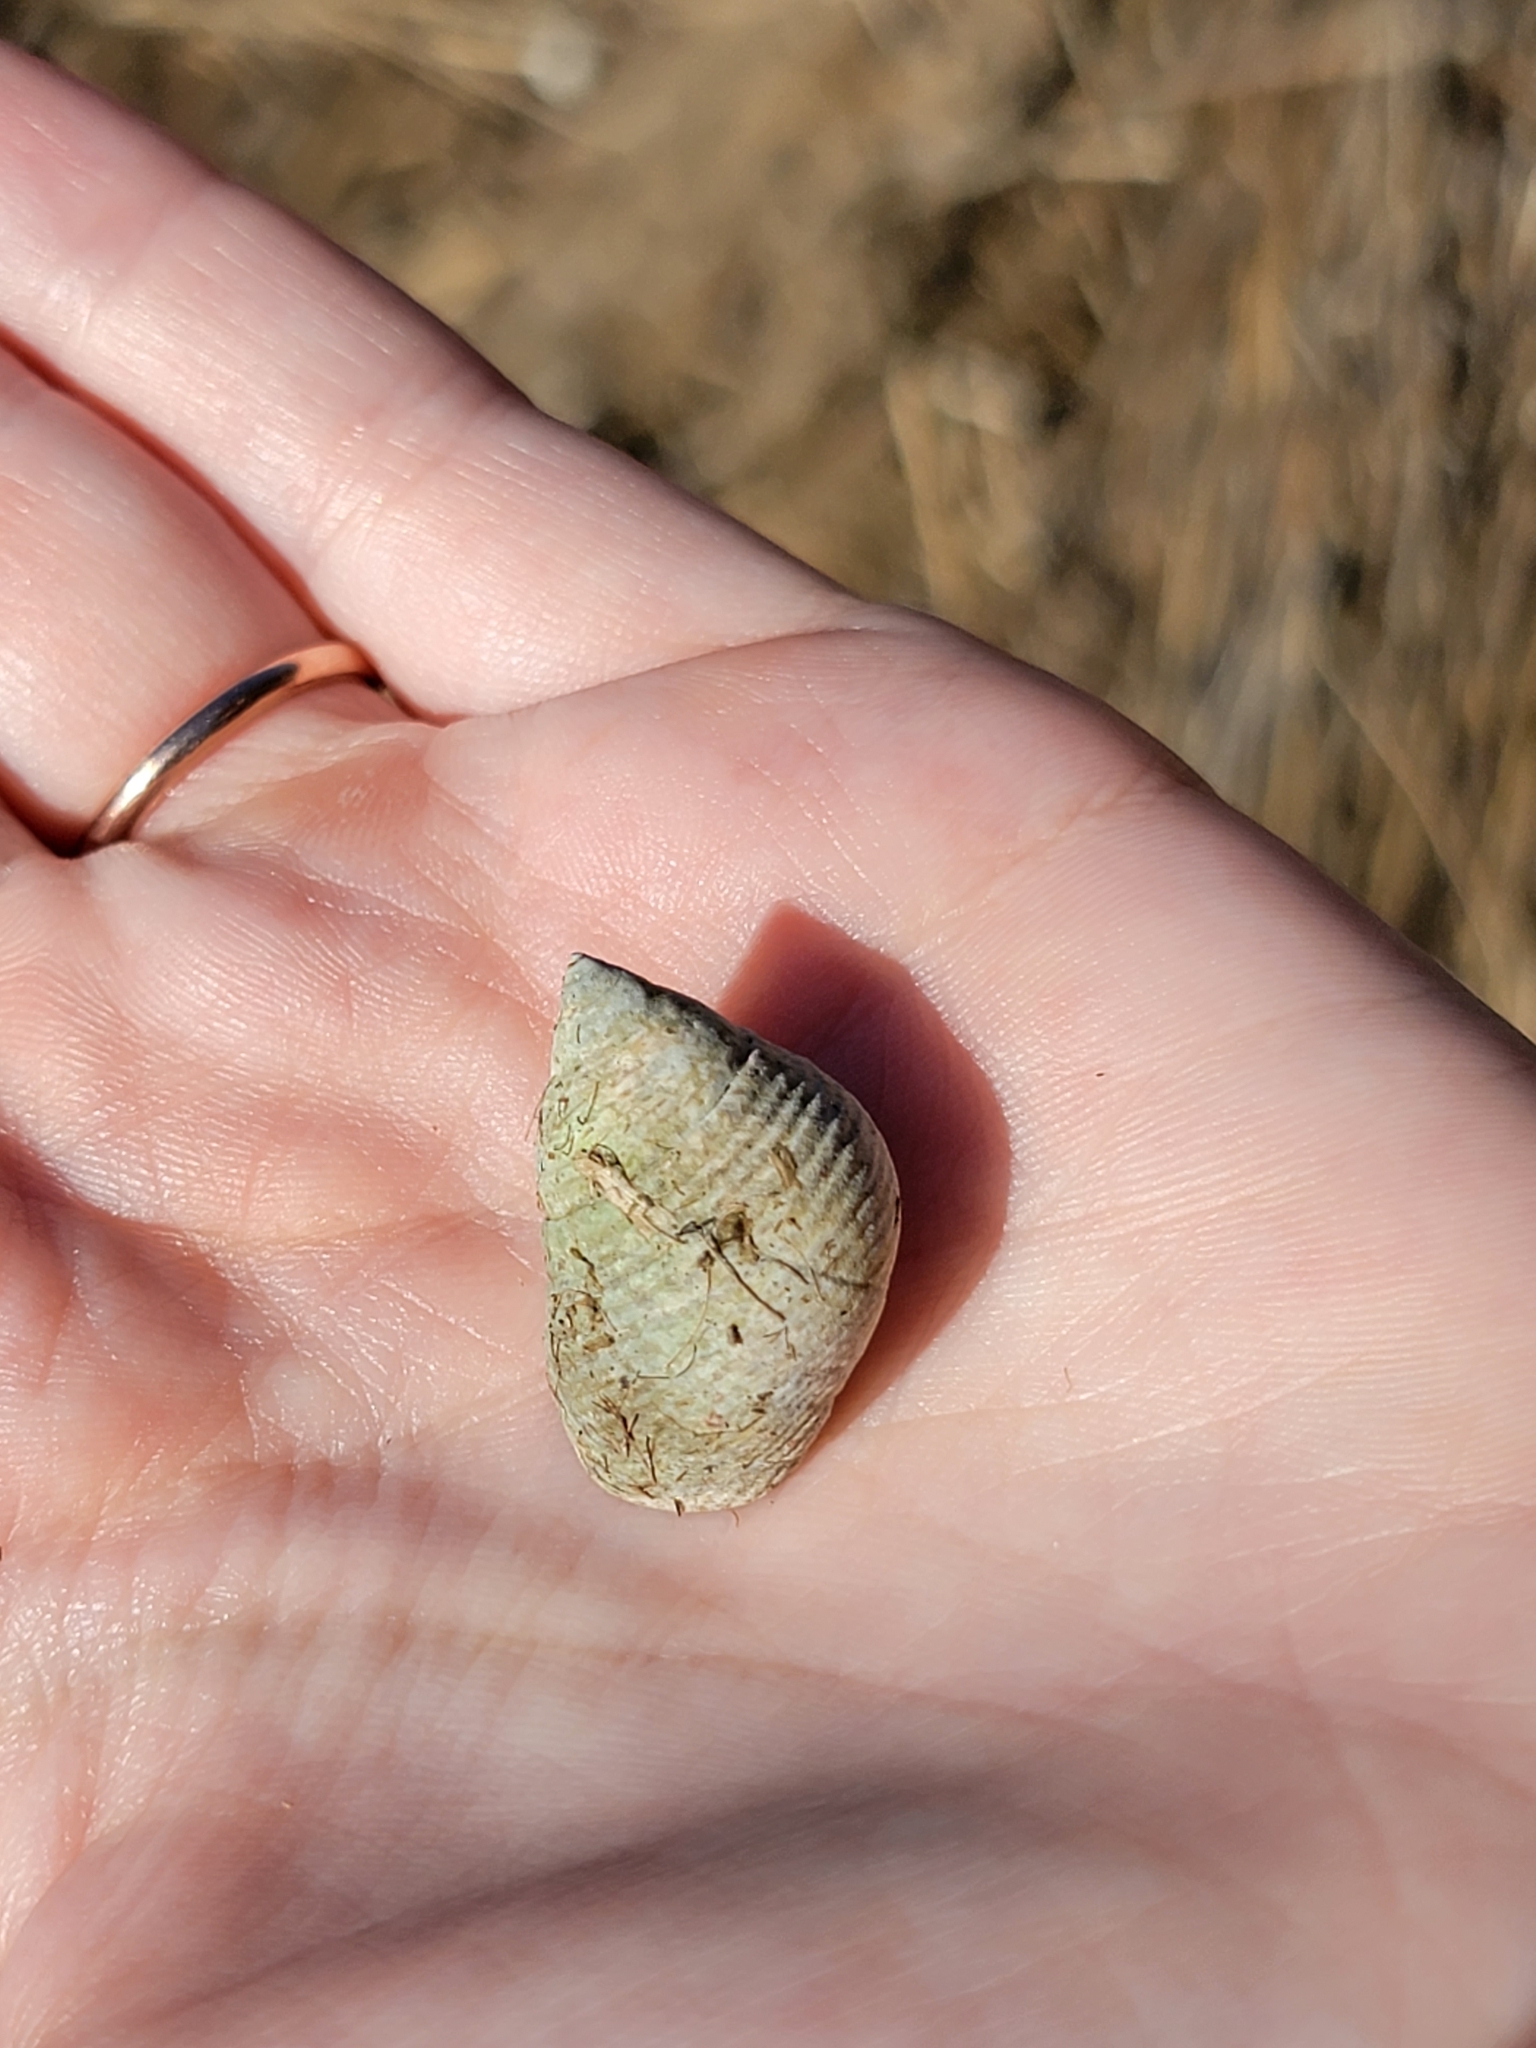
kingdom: Animalia
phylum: Mollusca
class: Gastropoda
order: Littorinimorpha
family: Littorinidae
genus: Littoraria
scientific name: Littoraria irrorata
